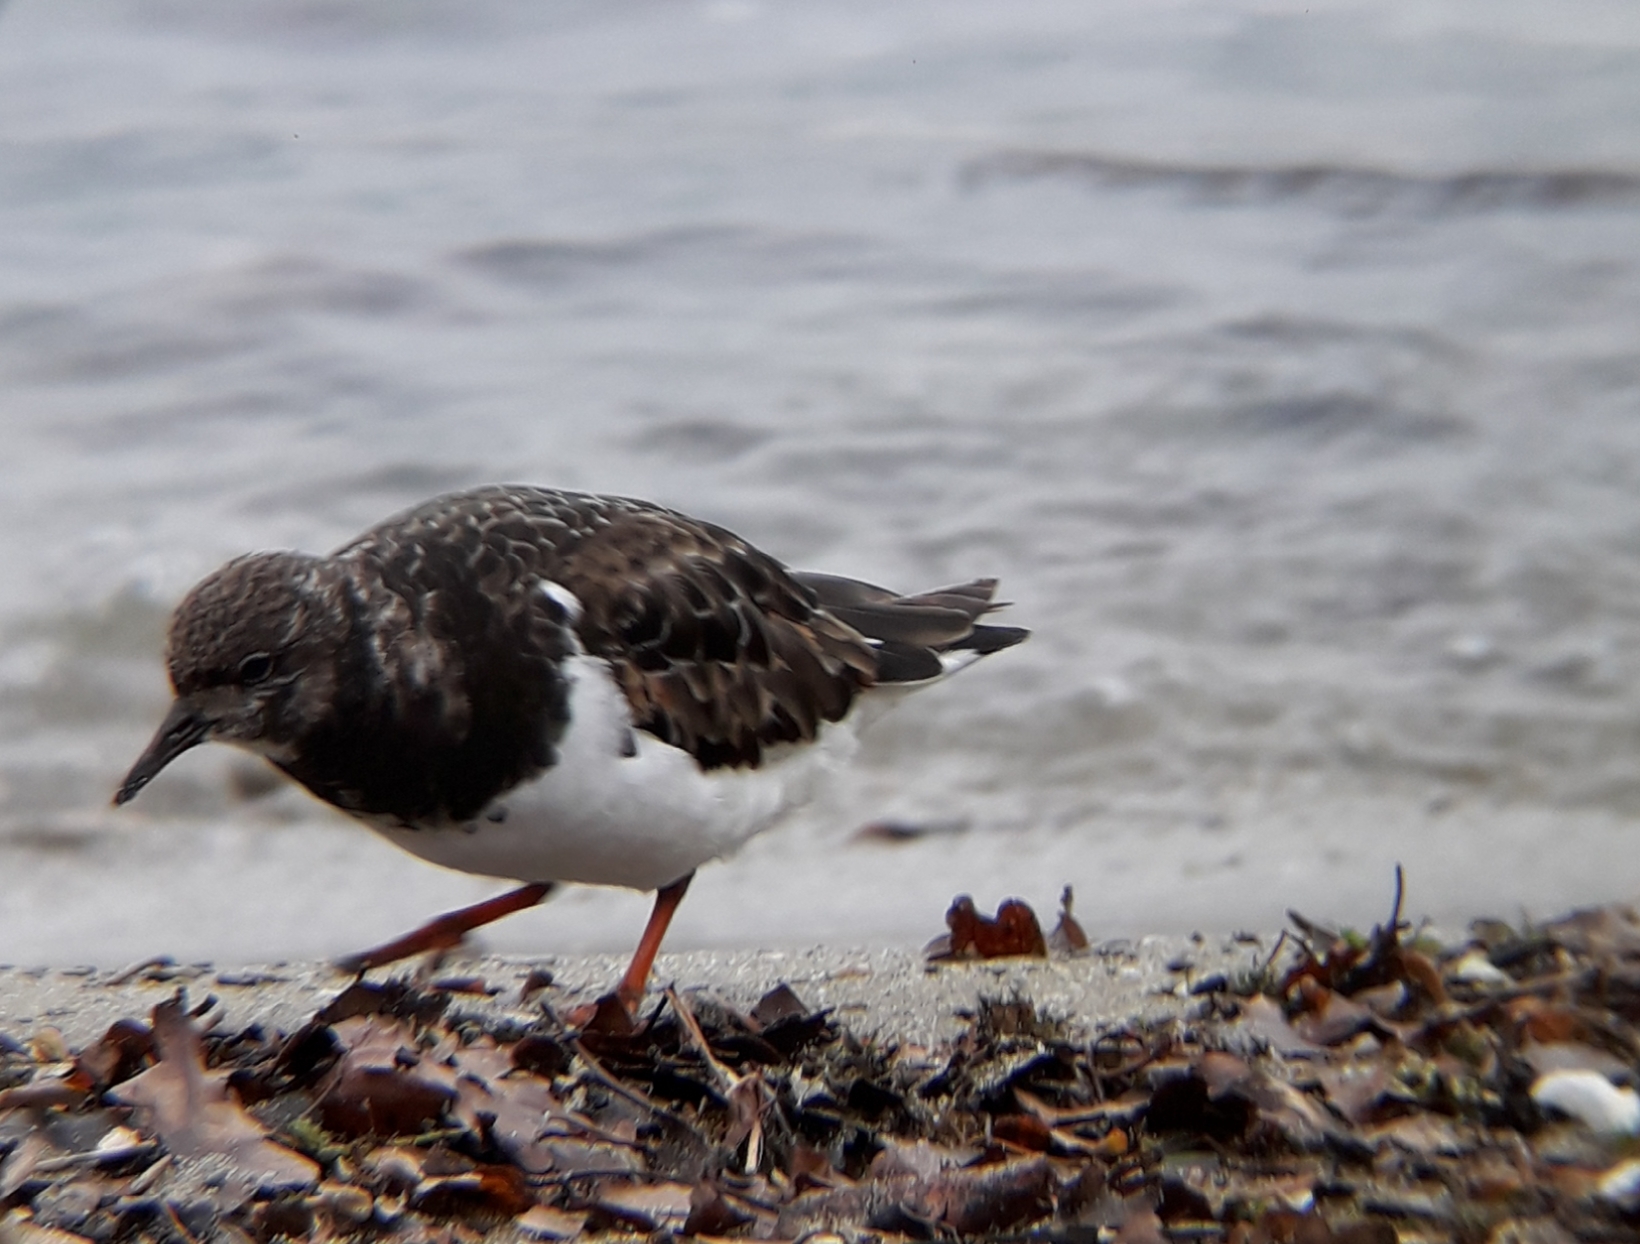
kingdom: Animalia
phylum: Chordata
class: Aves
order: Charadriiformes
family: Scolopacidae
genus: Arenaria
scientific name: Arenaria interpres
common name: Ruddy turnstone
